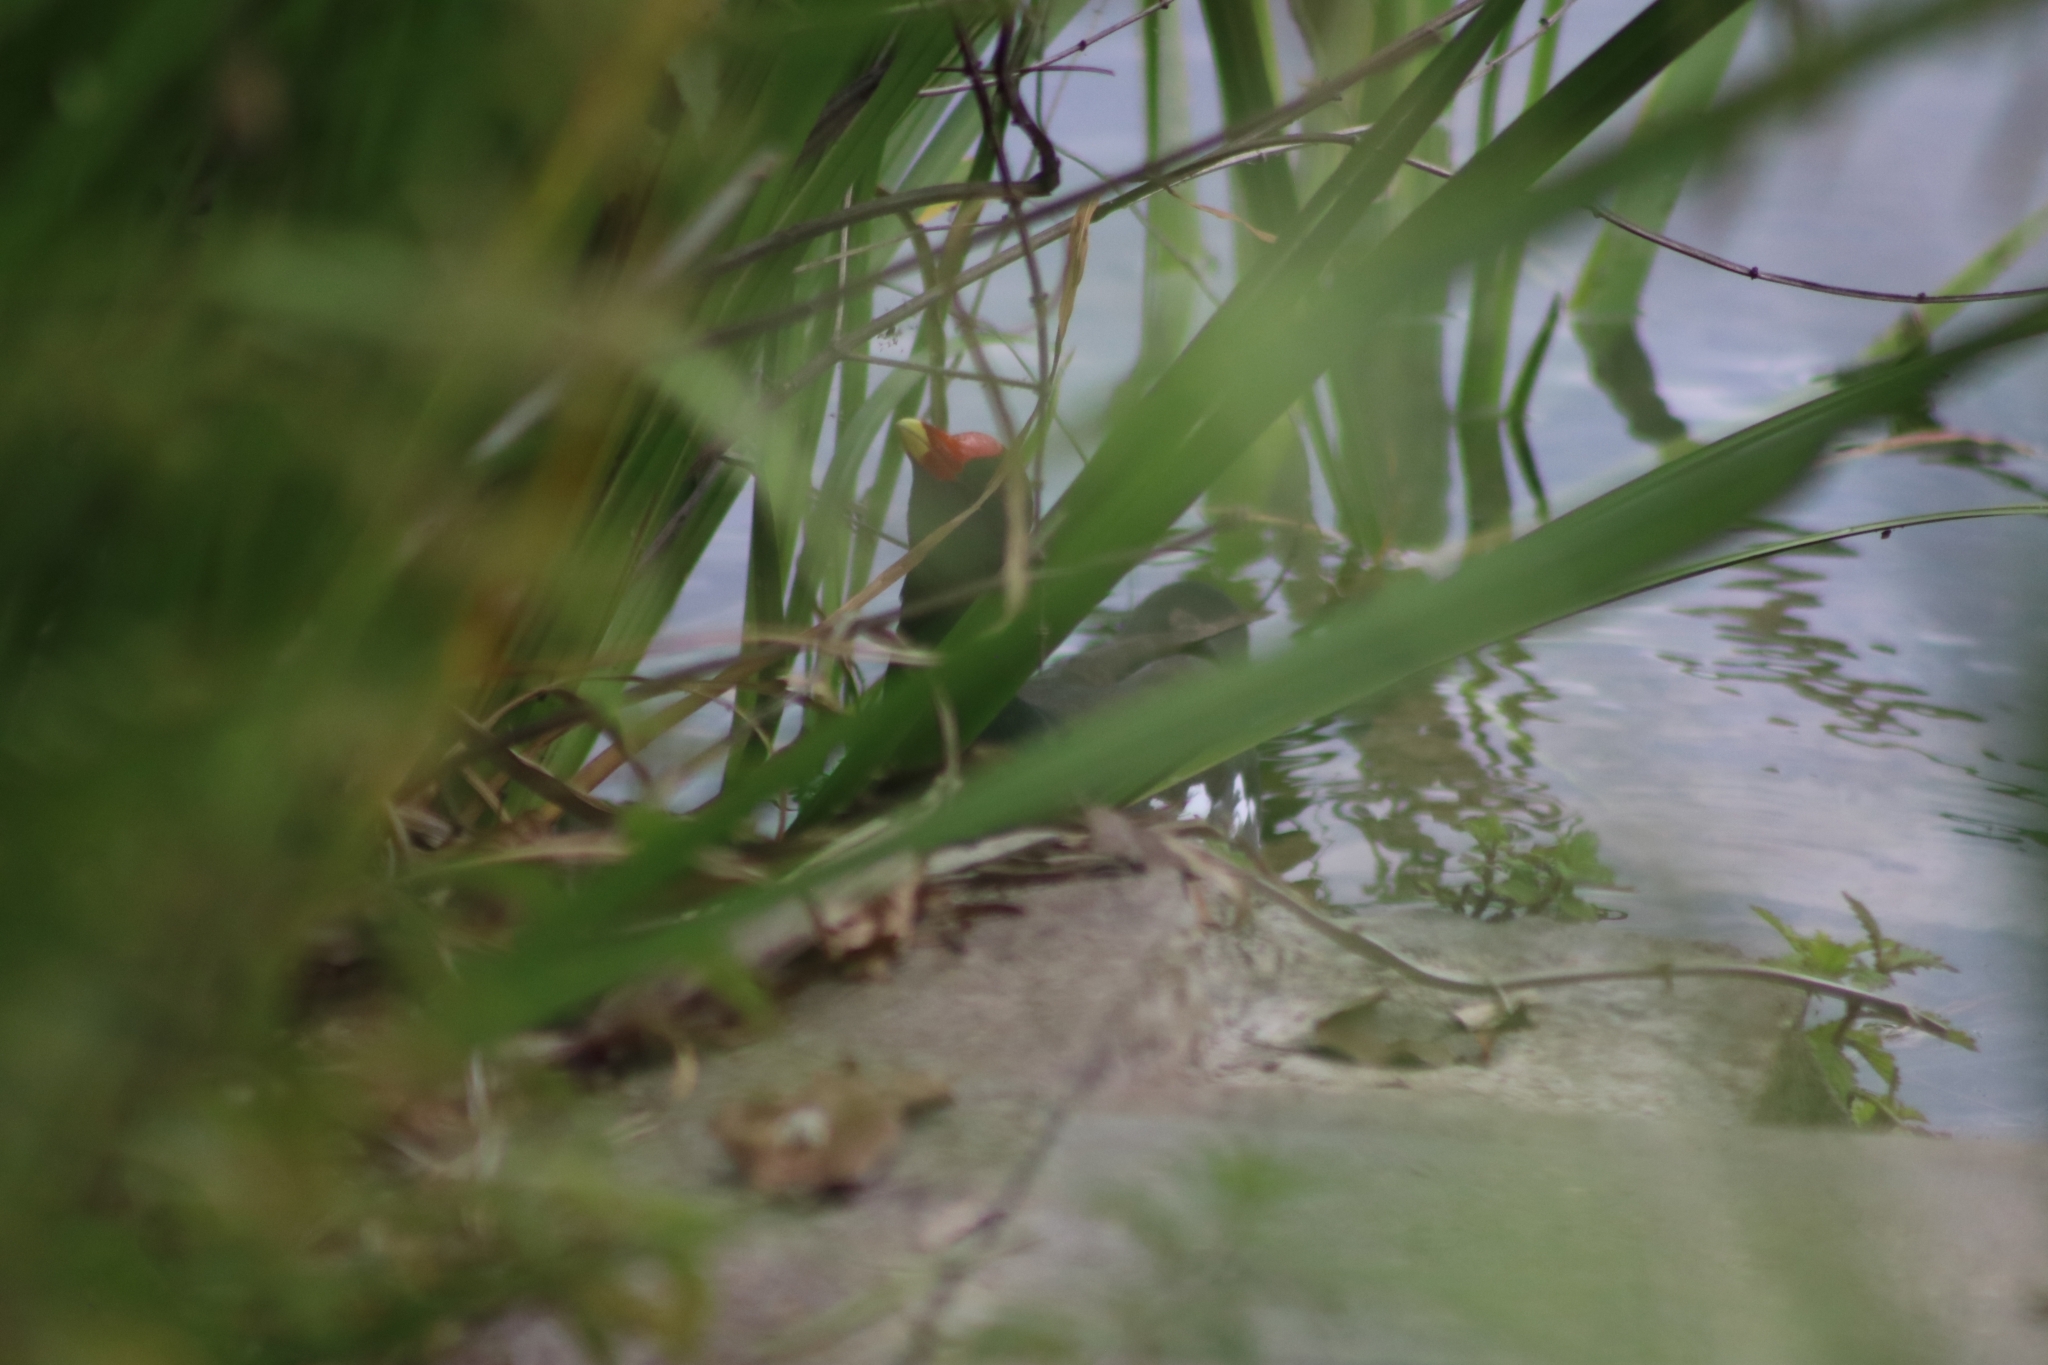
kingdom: Animalia
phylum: Chordata
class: Aves
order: Gruiformes
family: Rallidae
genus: Gallinula
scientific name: Gallinula chloropus
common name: Common moorhen
